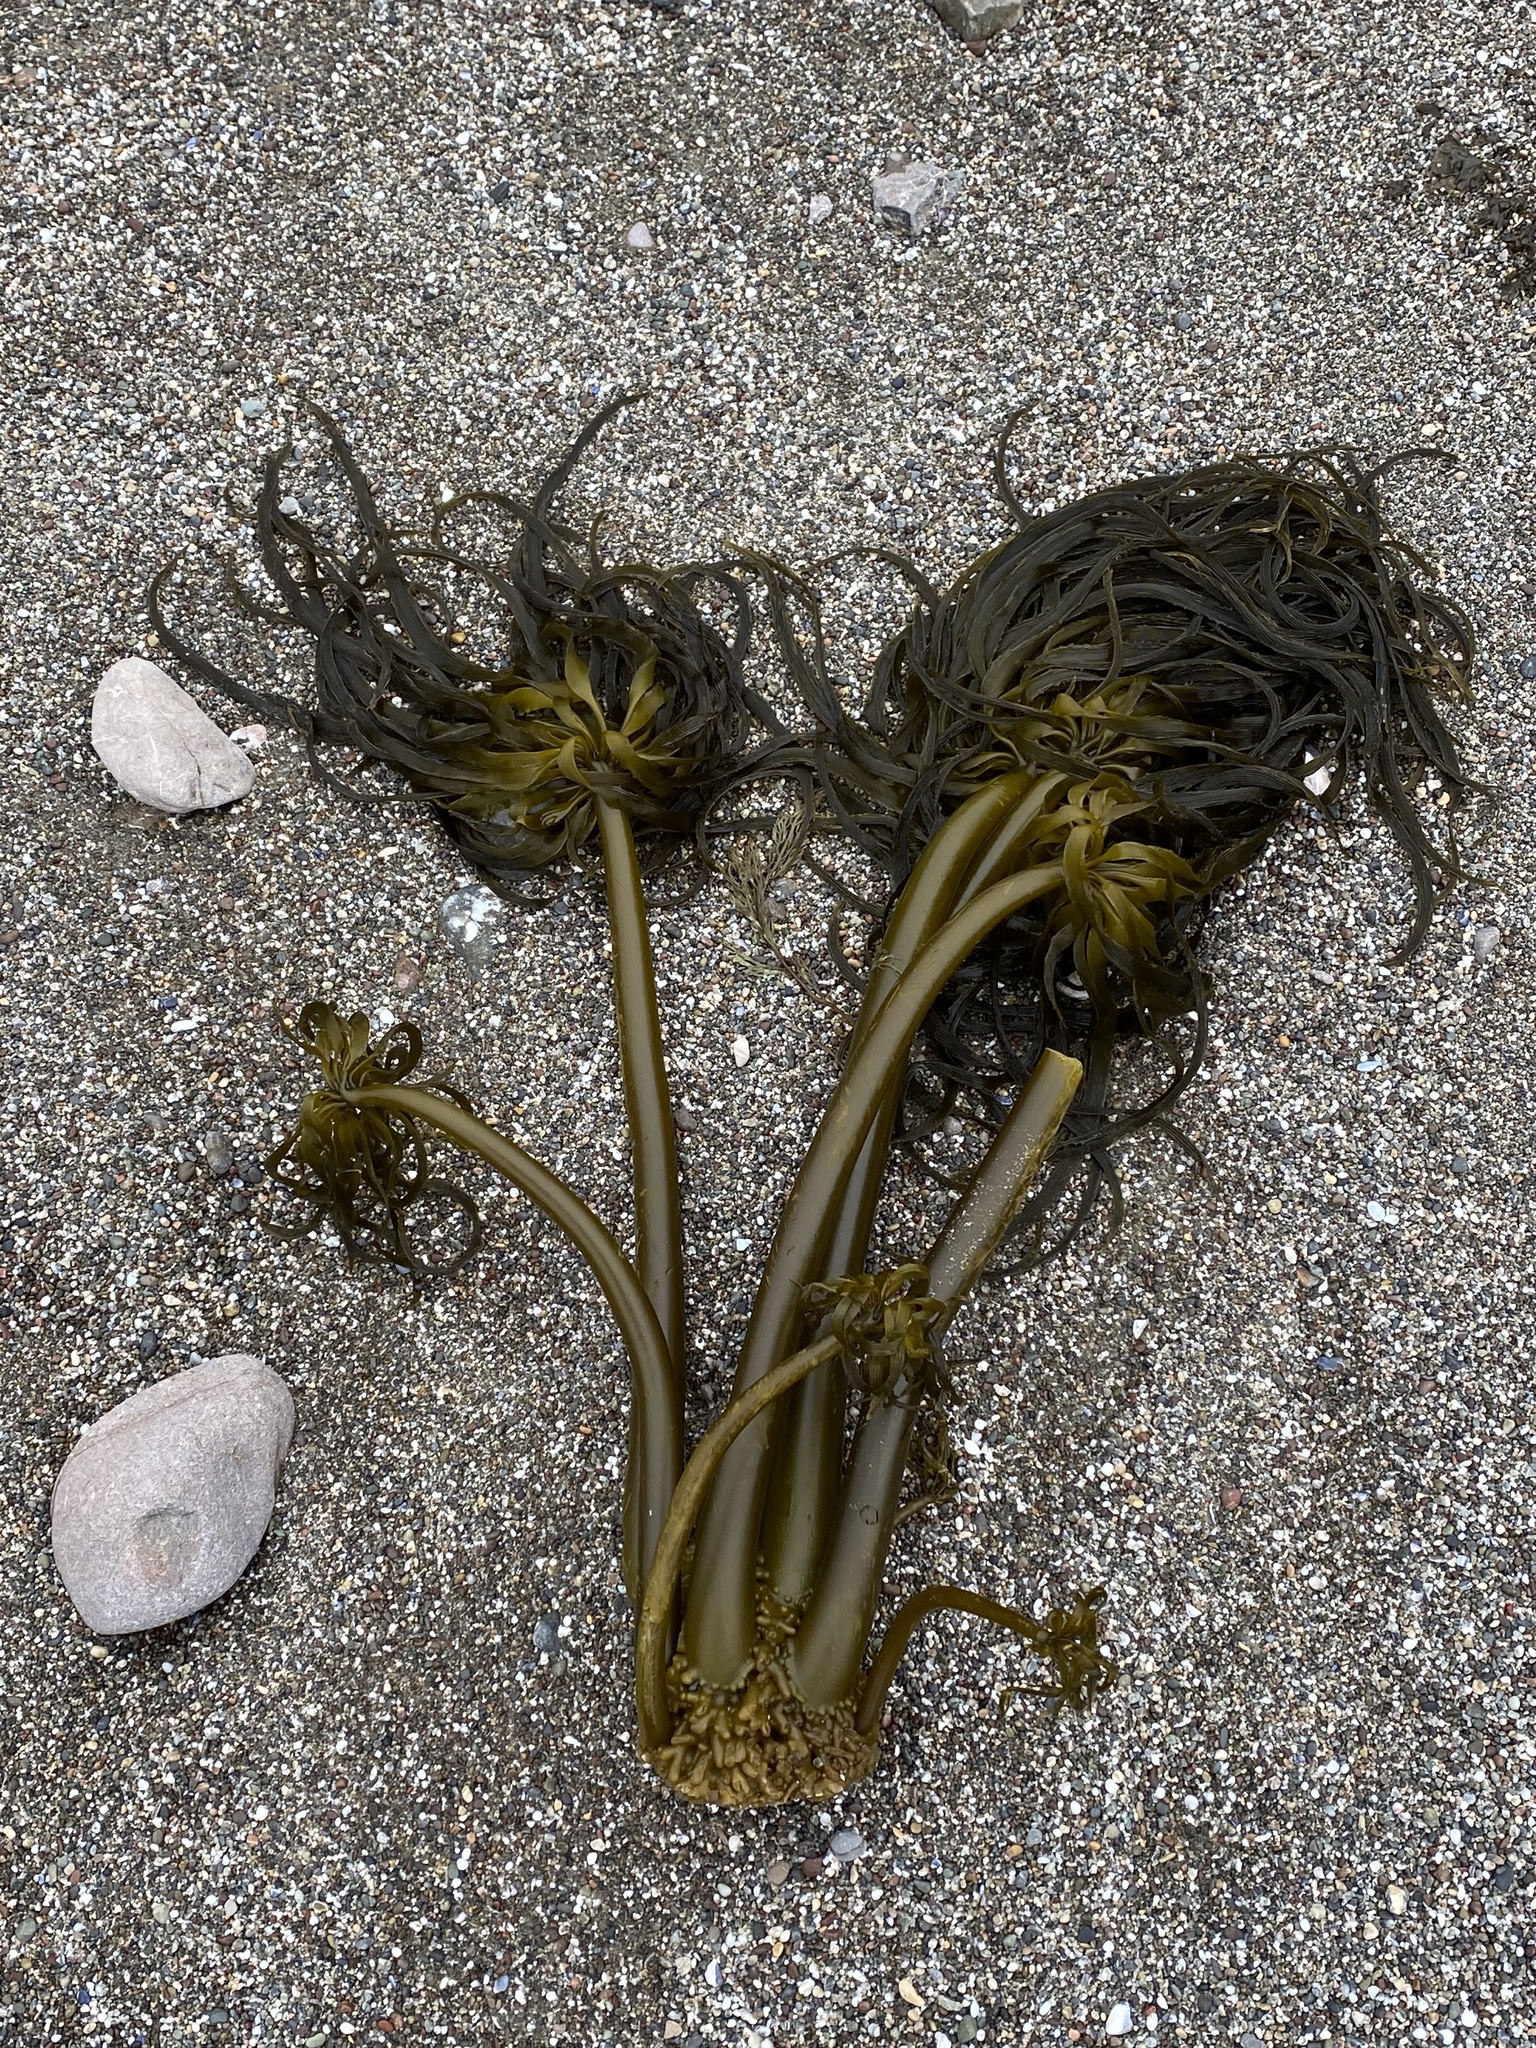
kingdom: Chromista
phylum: Ochrophyta
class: Phaeophyceae
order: Laminariales
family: Laminariaceae
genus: Postelsia
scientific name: Postelsia palmiformis
